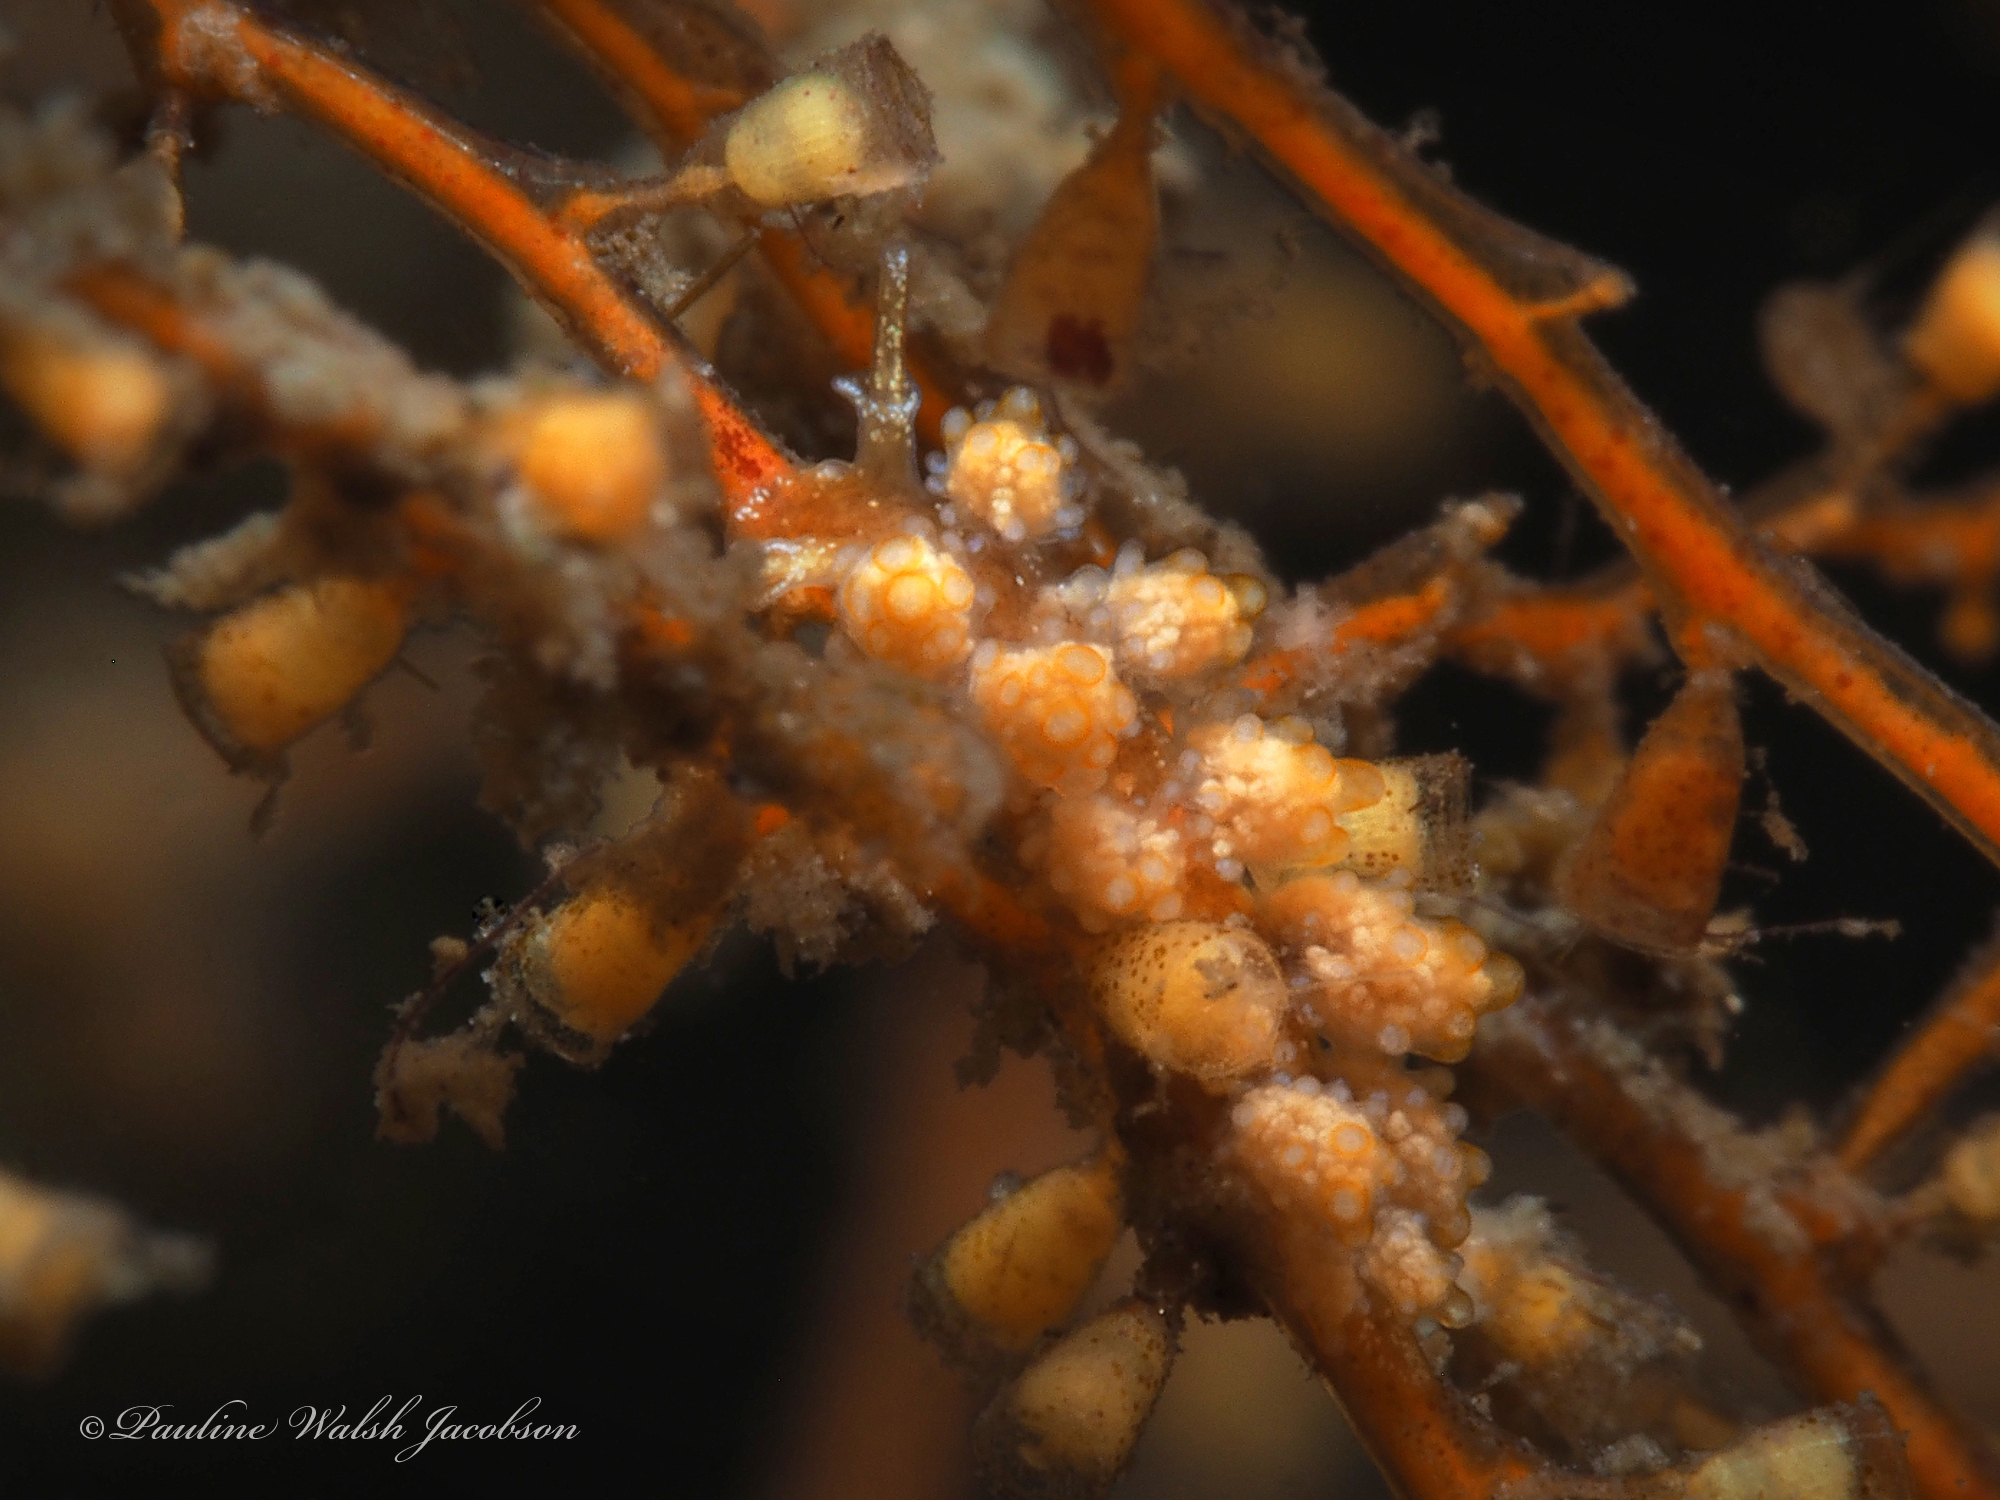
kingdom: Animalia
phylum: Mollusca
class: Gastropoda
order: Nudibranchia
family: Dotidae
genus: Doto
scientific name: Doto torrelavega
